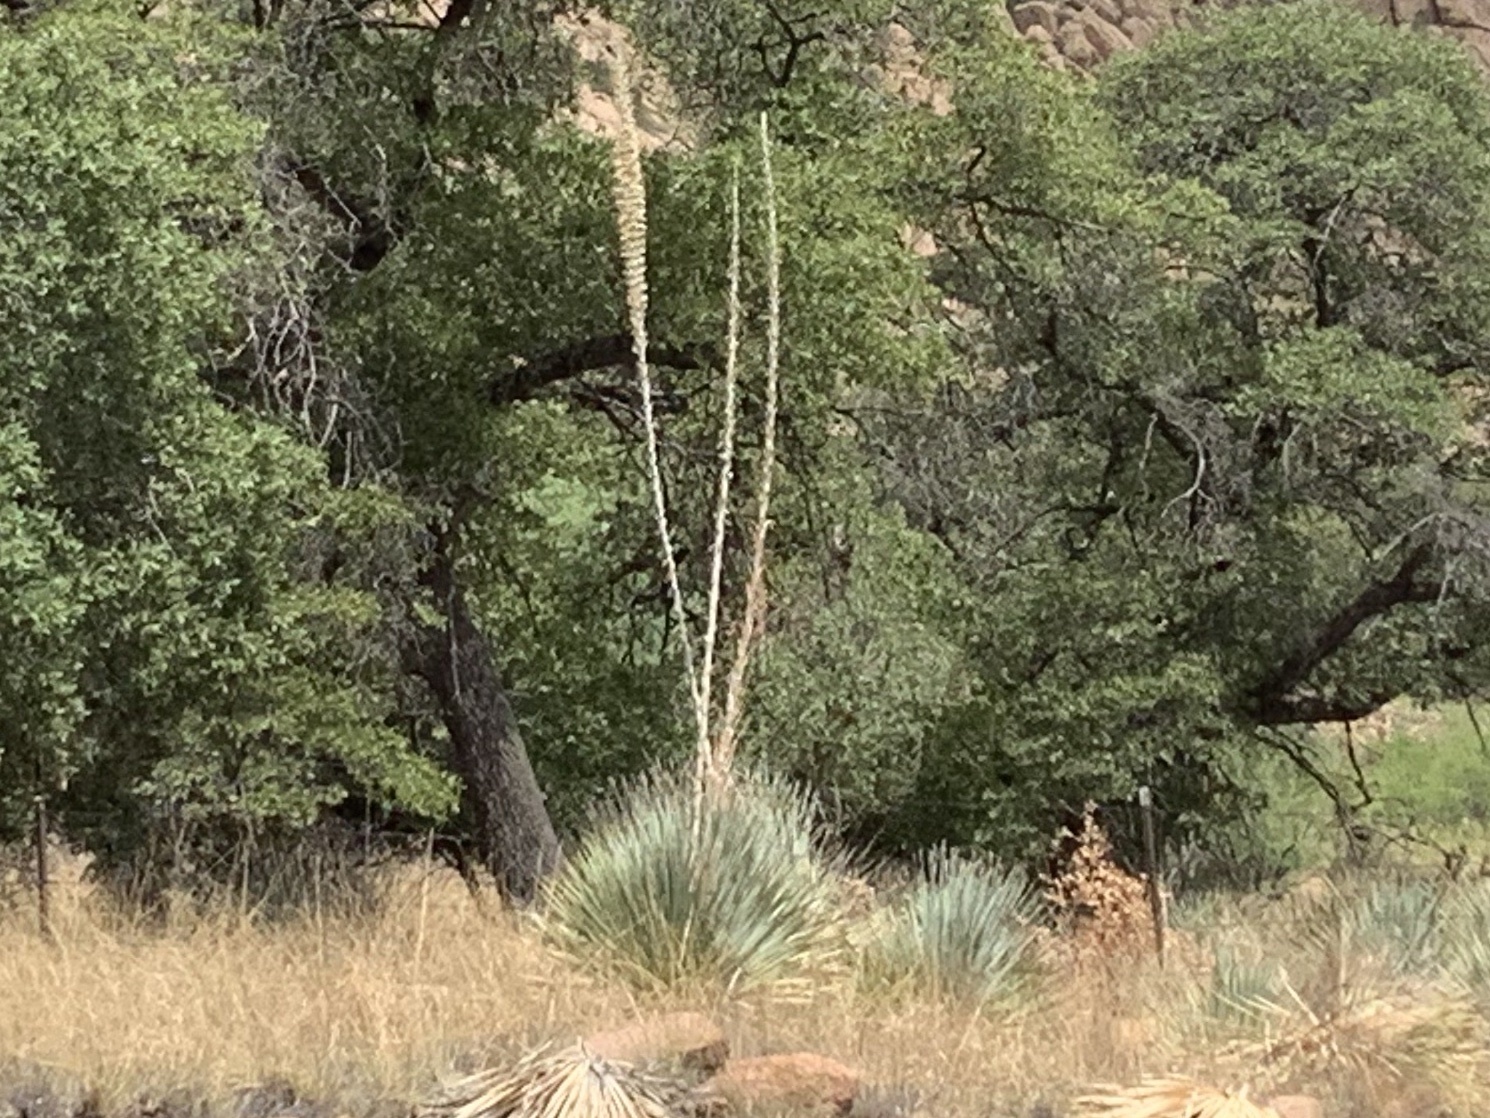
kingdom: Plantae
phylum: Tracheophyta
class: Liliopsida
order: Asparagales
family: Asparagaceae
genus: Dasylirion
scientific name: Dasylirion wheeleri
